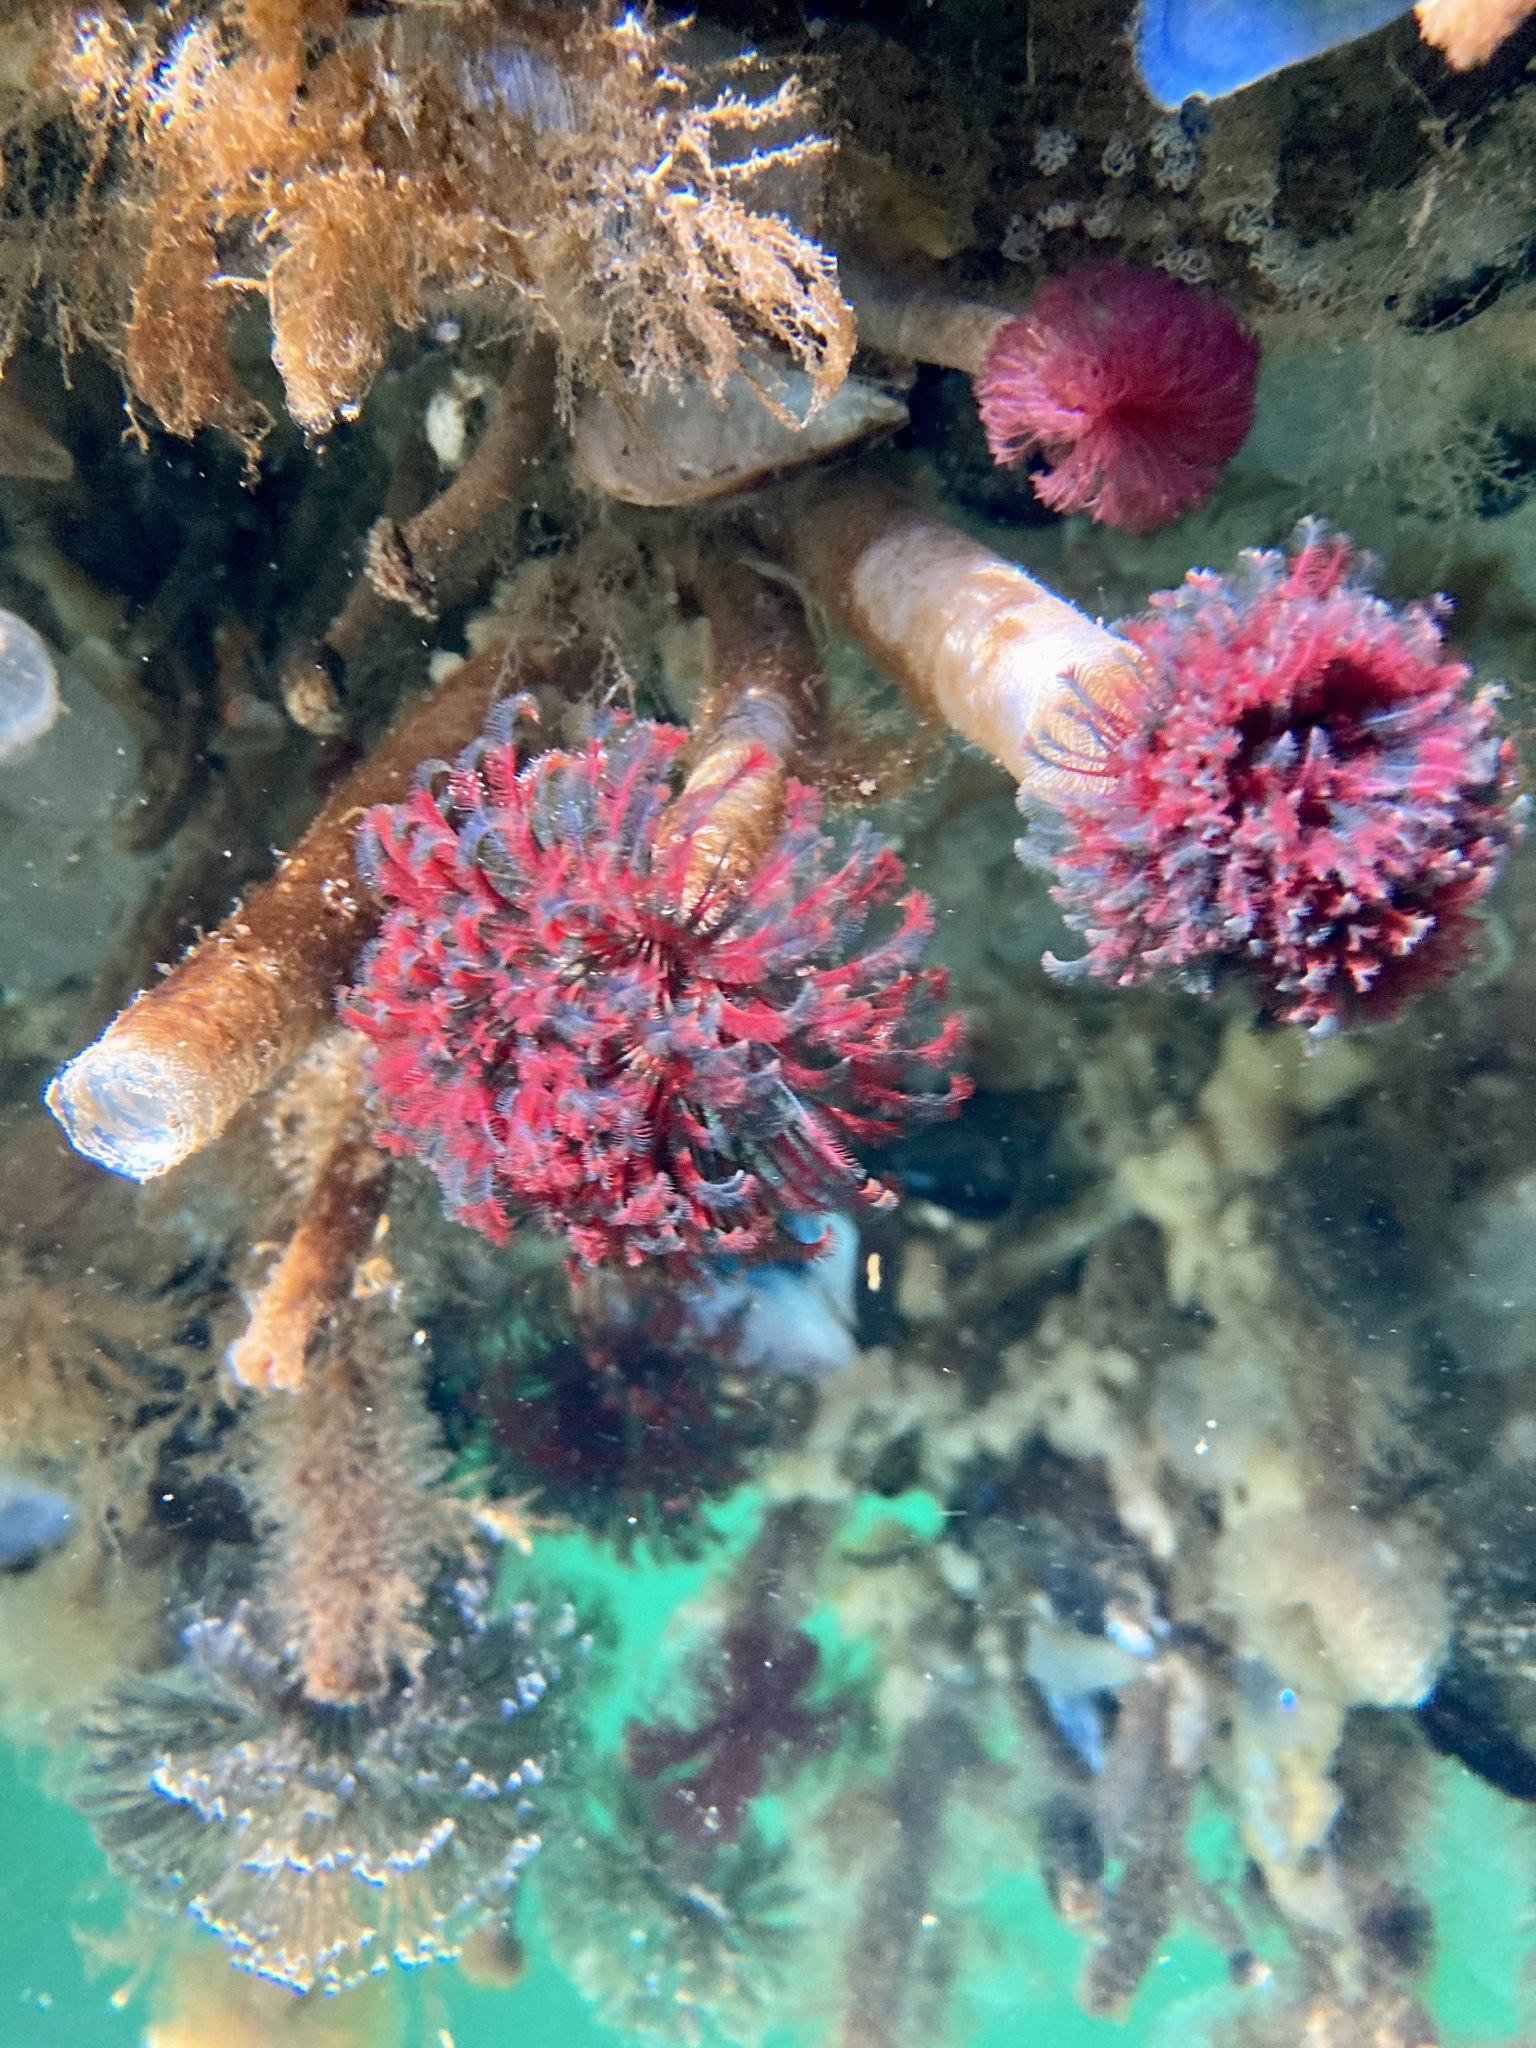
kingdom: Animalia
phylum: Annelida
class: Polychaeta
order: Sabellida
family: Sabellidae
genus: Eudistylia
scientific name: Eudistylia vancouveri
